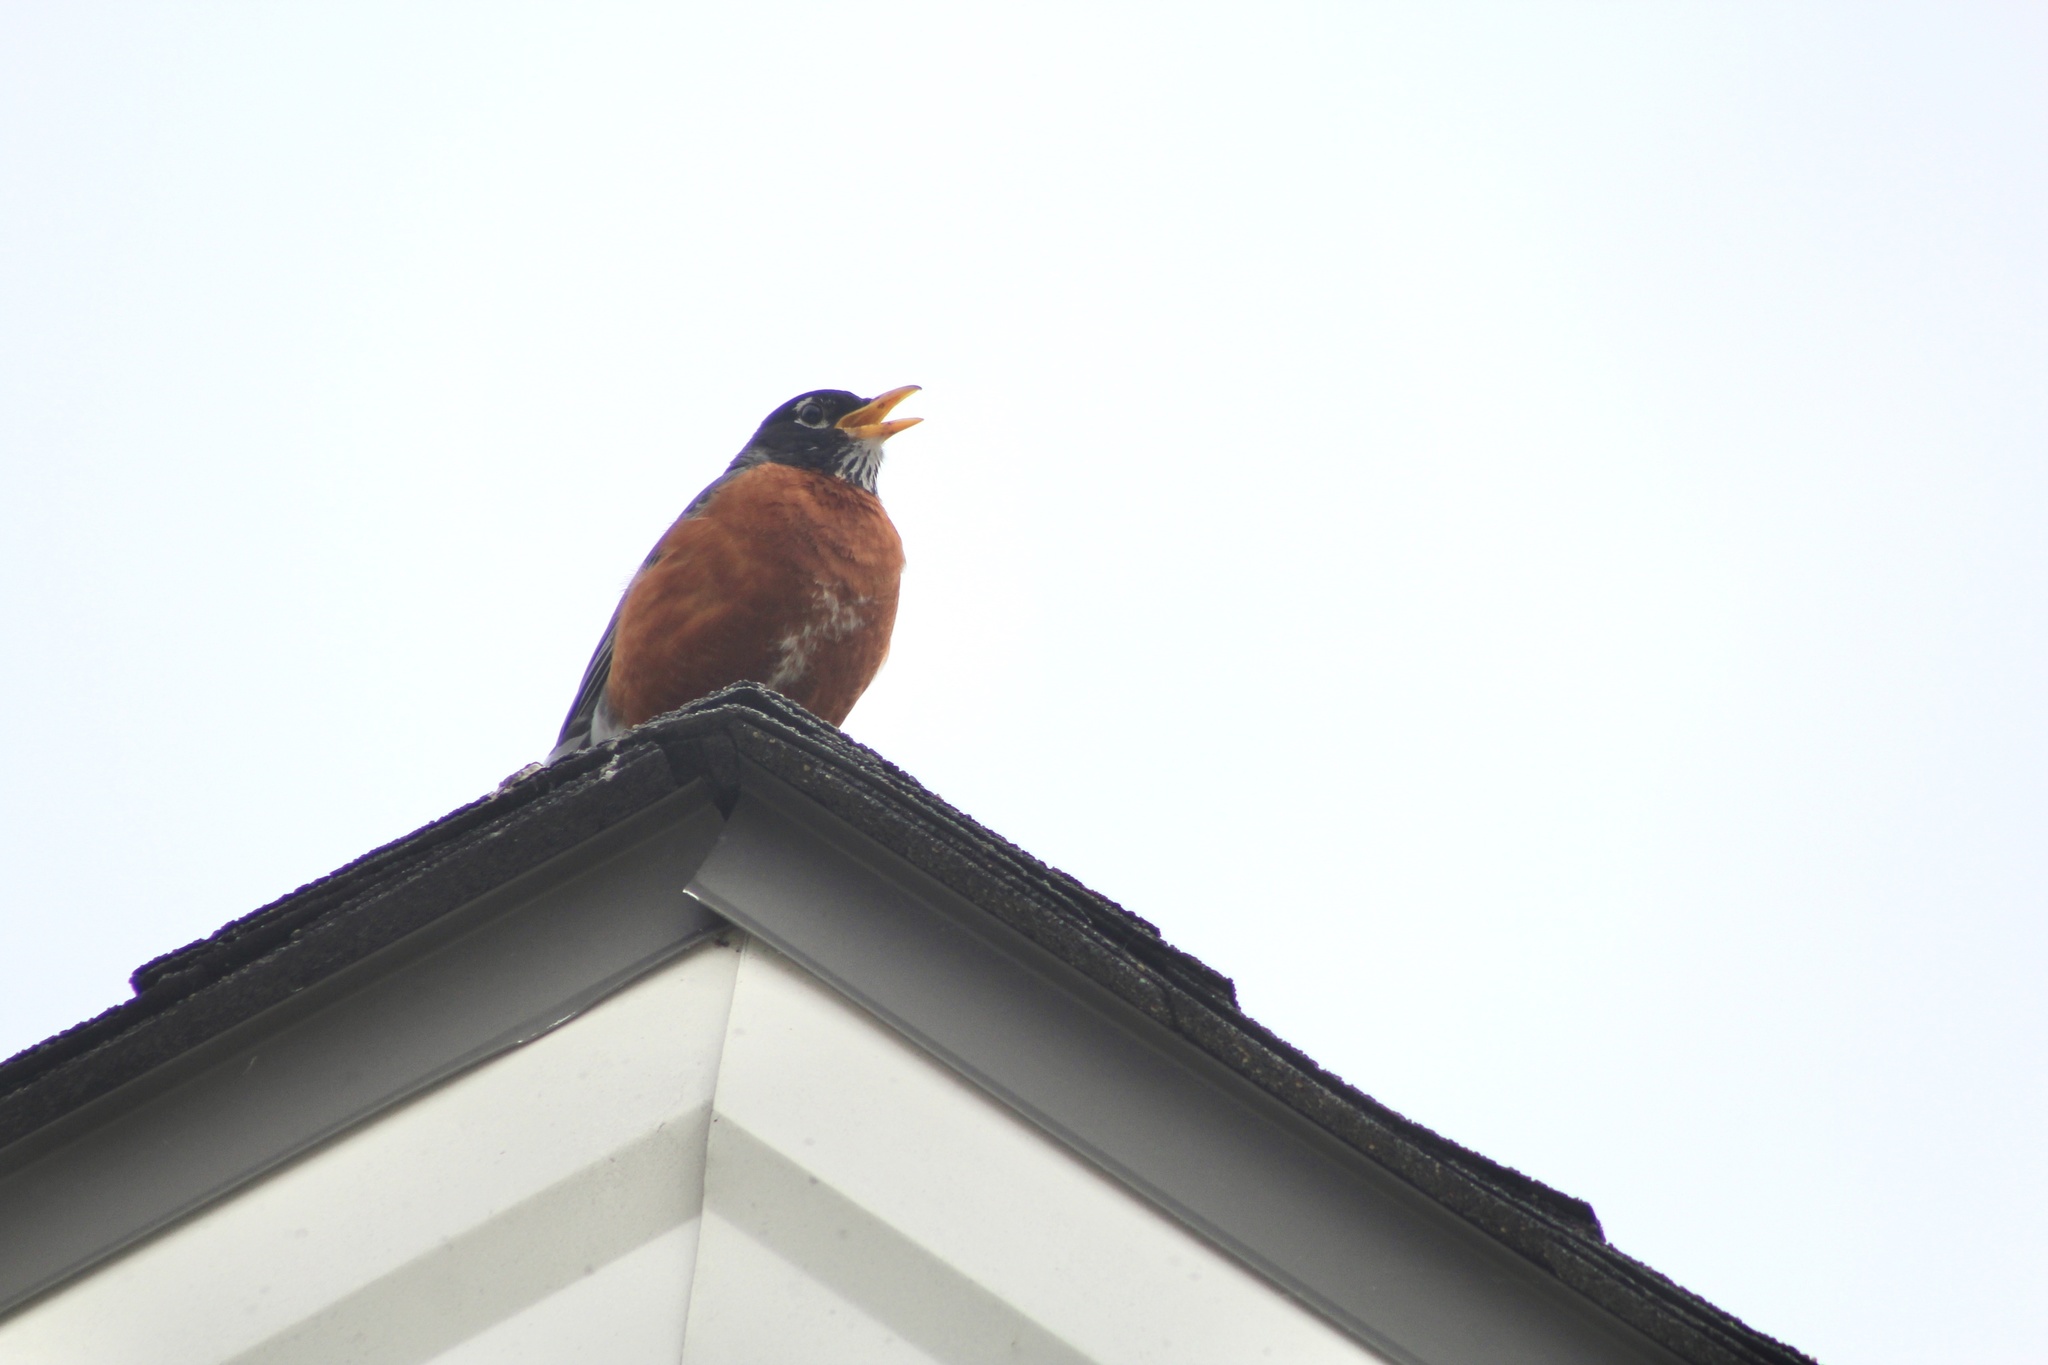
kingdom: Animalia
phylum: Chordata
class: Aves
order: Passeriformes
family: Turdidae
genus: Turdus
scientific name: Turdus migratorius
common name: American robin
